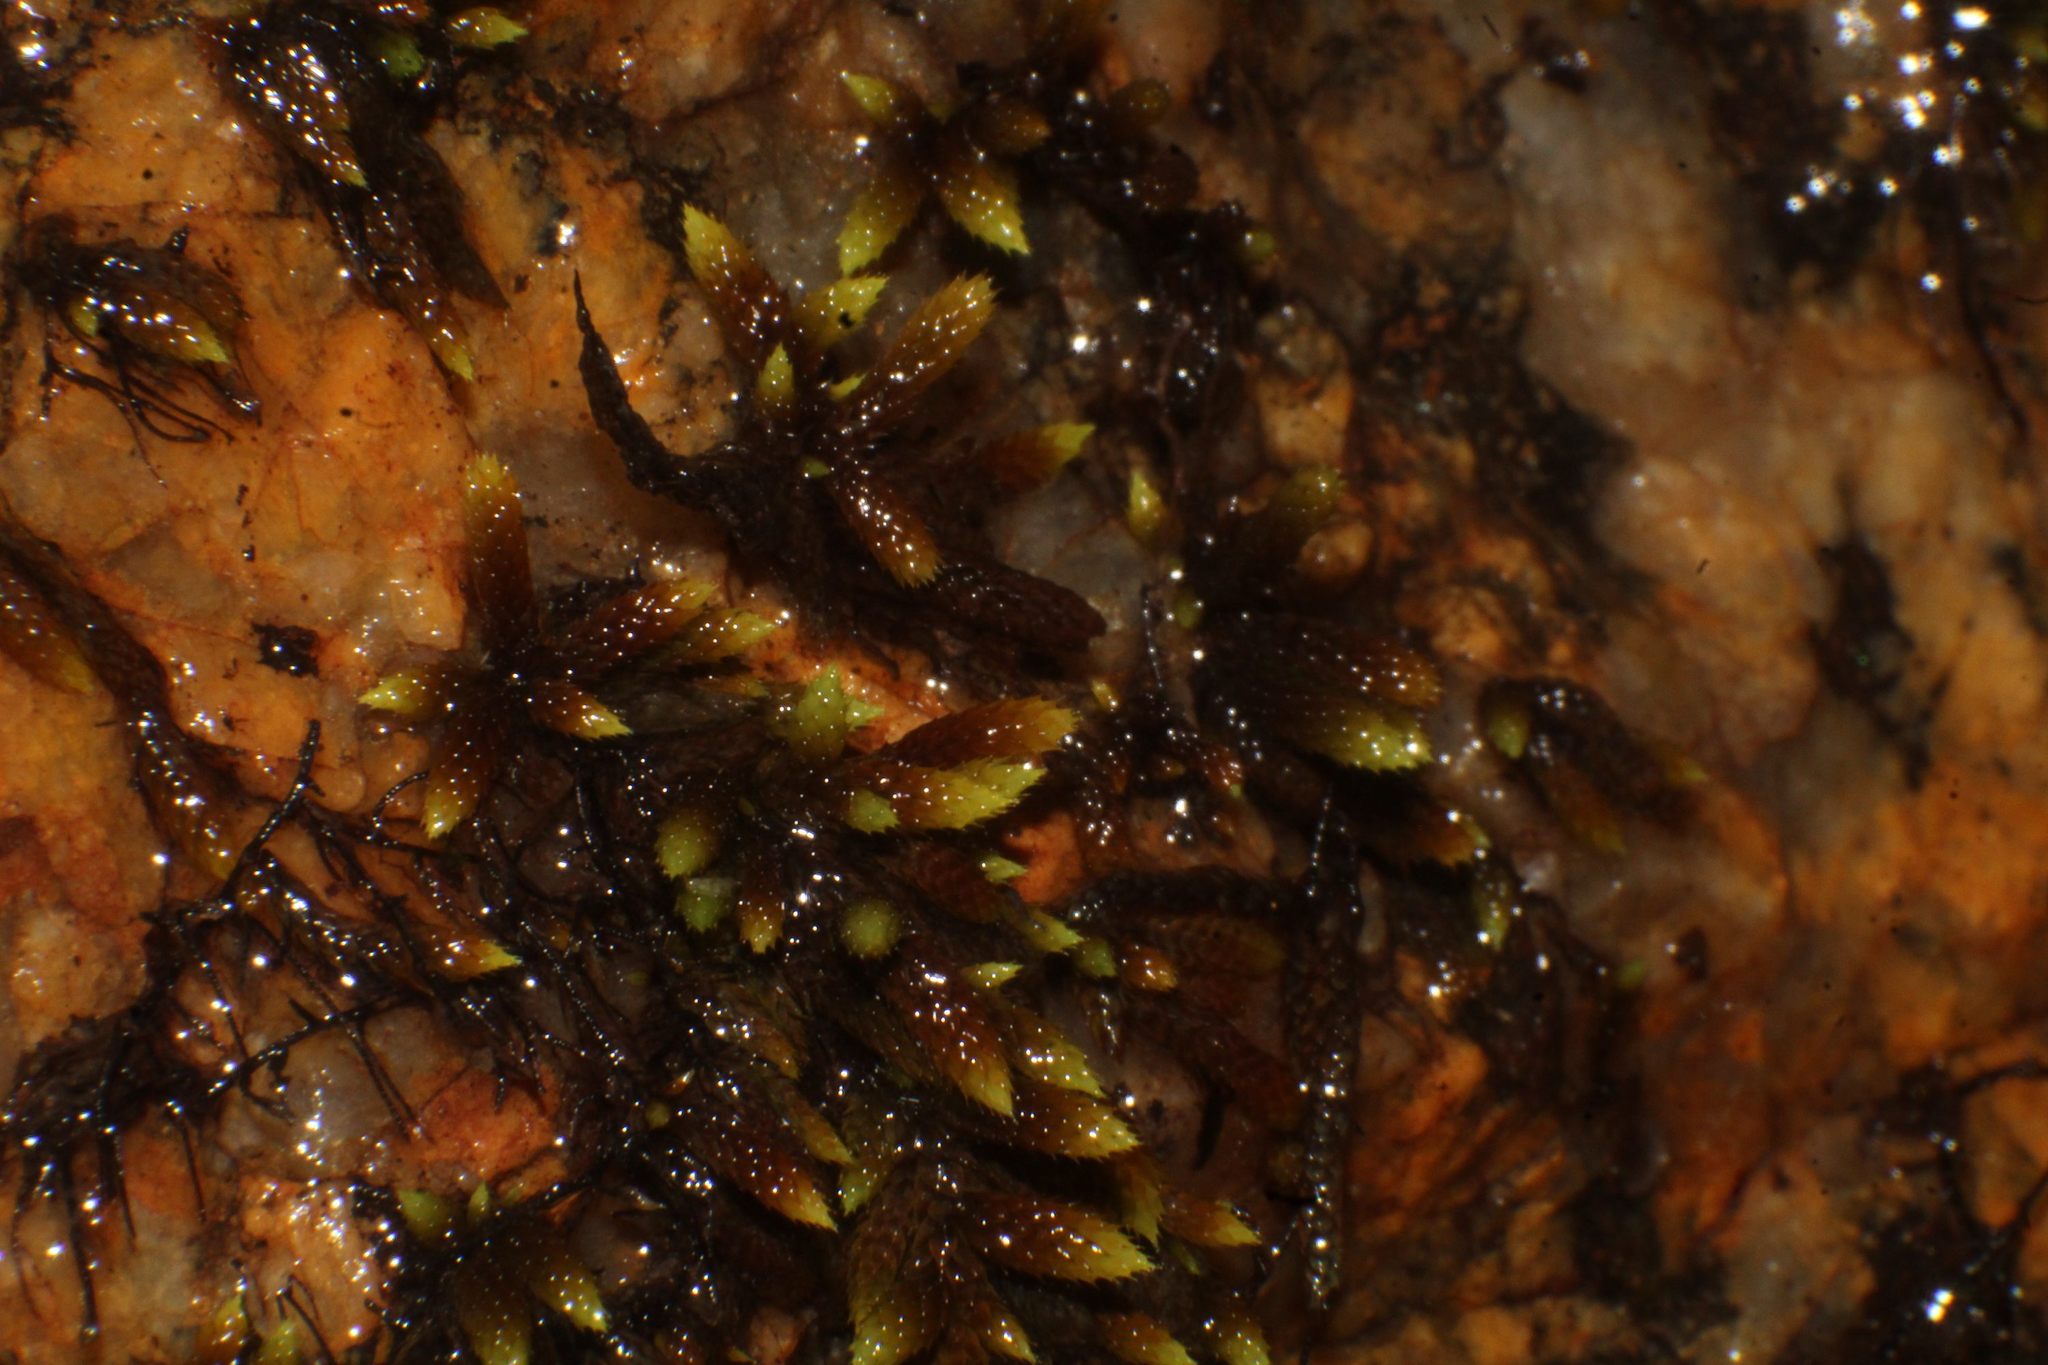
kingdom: Plantae
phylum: Bryophyta
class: Bryopsida
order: Hedwigiales
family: Hedwigiaceae
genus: Rhacocarpus
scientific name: Rhacocarpus purpurascens
